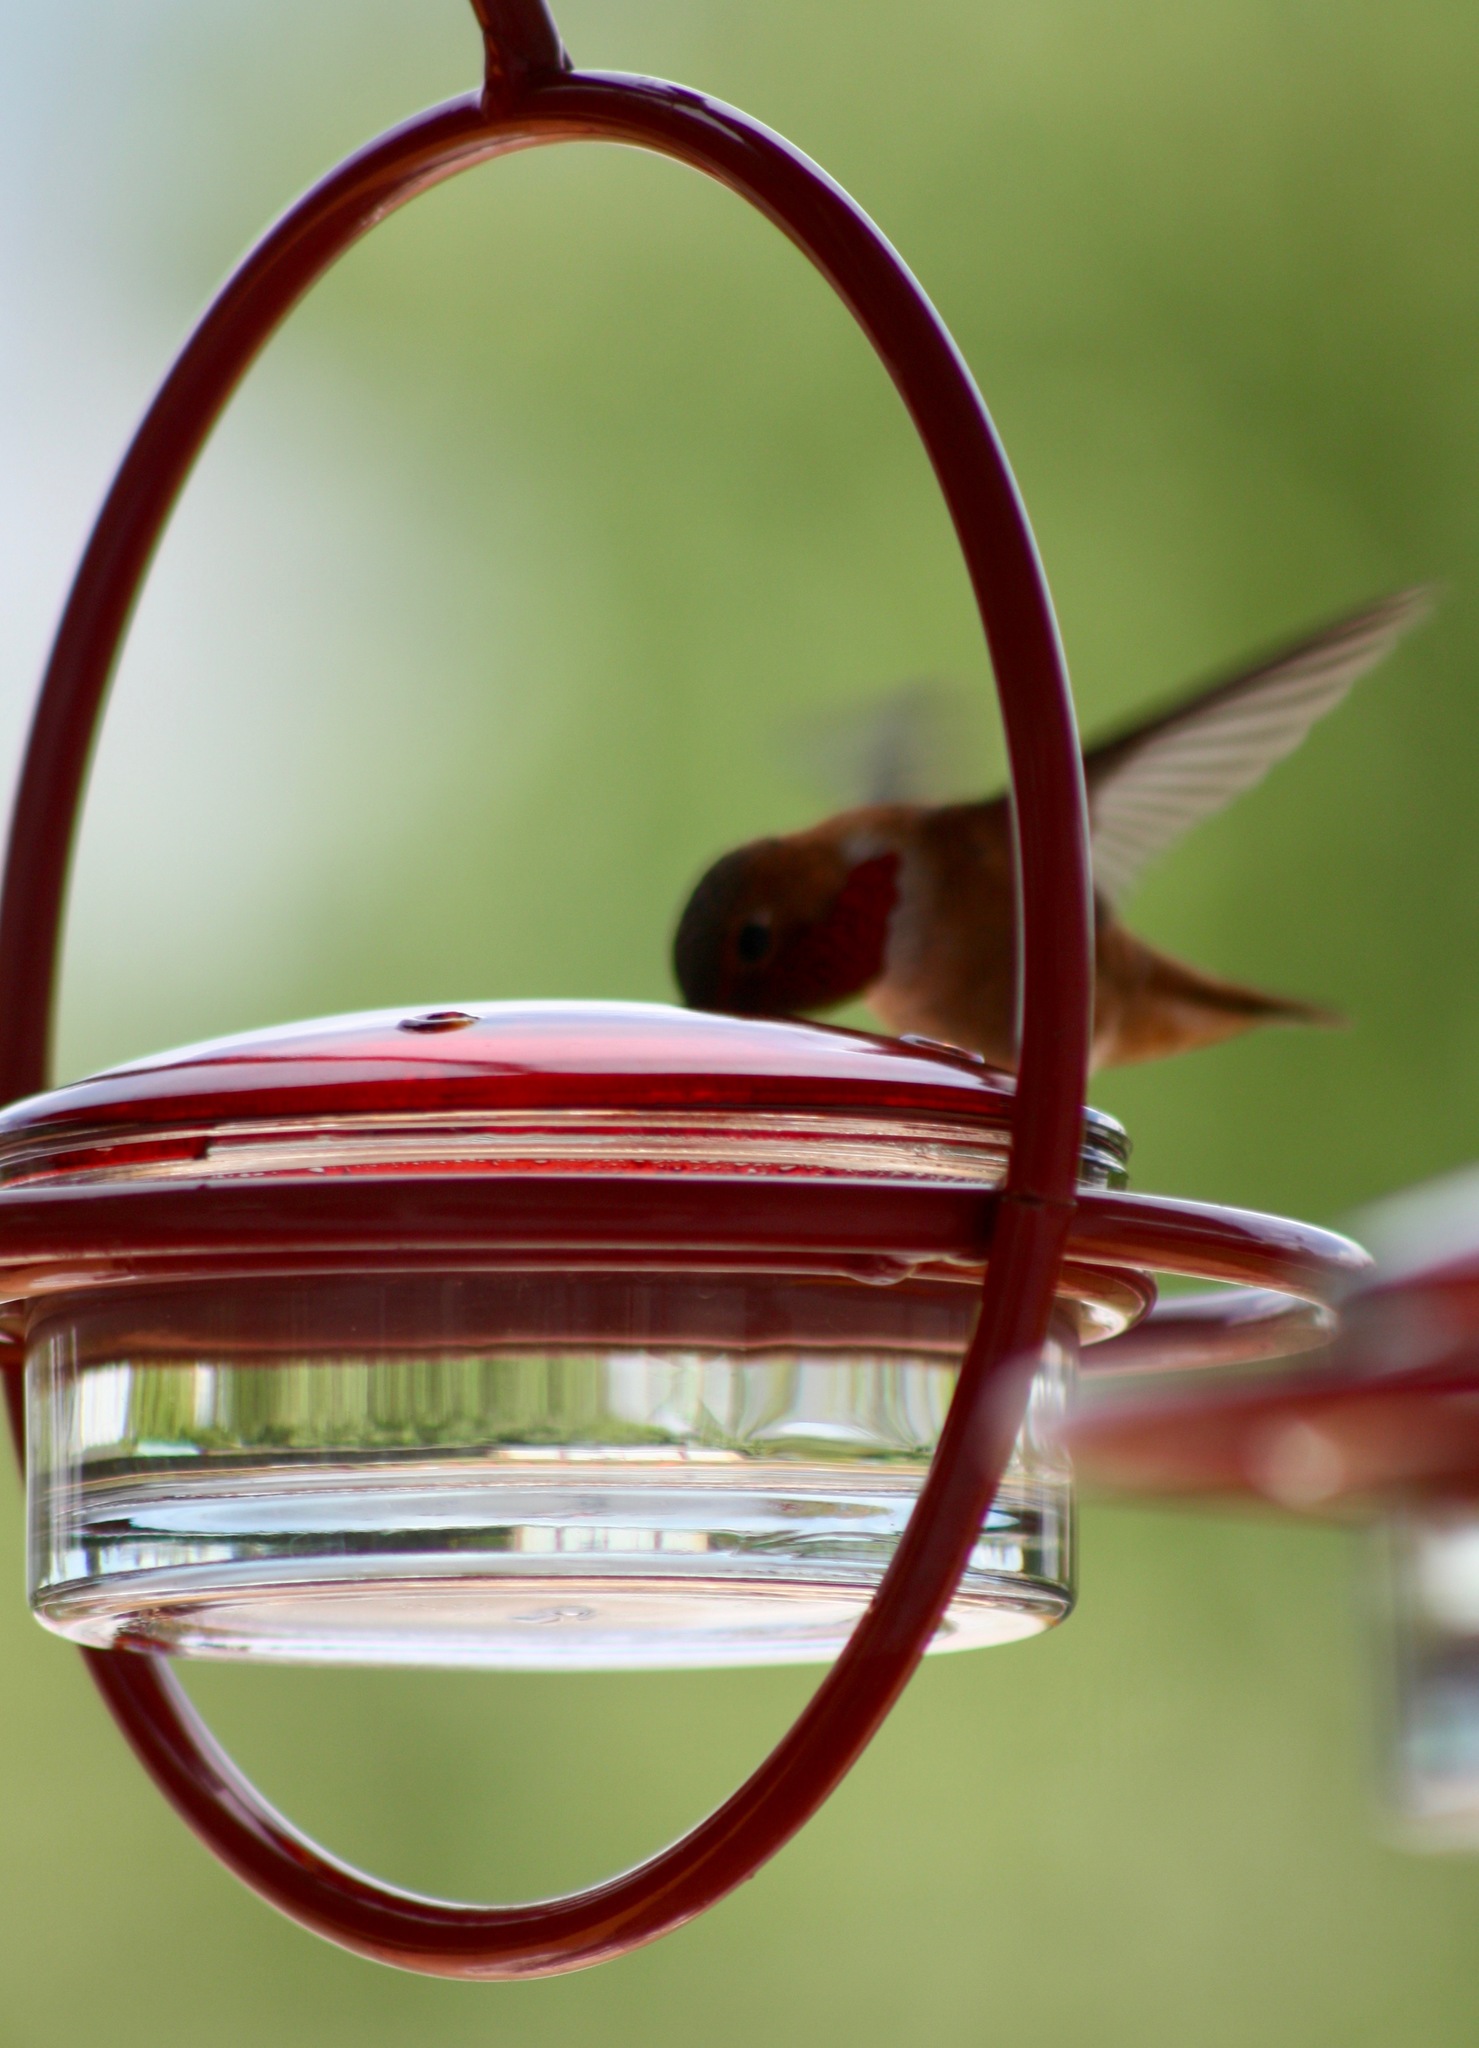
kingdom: Animalia
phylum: Chordata
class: Aves
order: Apodiformes
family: Trochilidae
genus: Selasphorus
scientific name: Selasphorus rufus
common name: Rufous hummingbird
